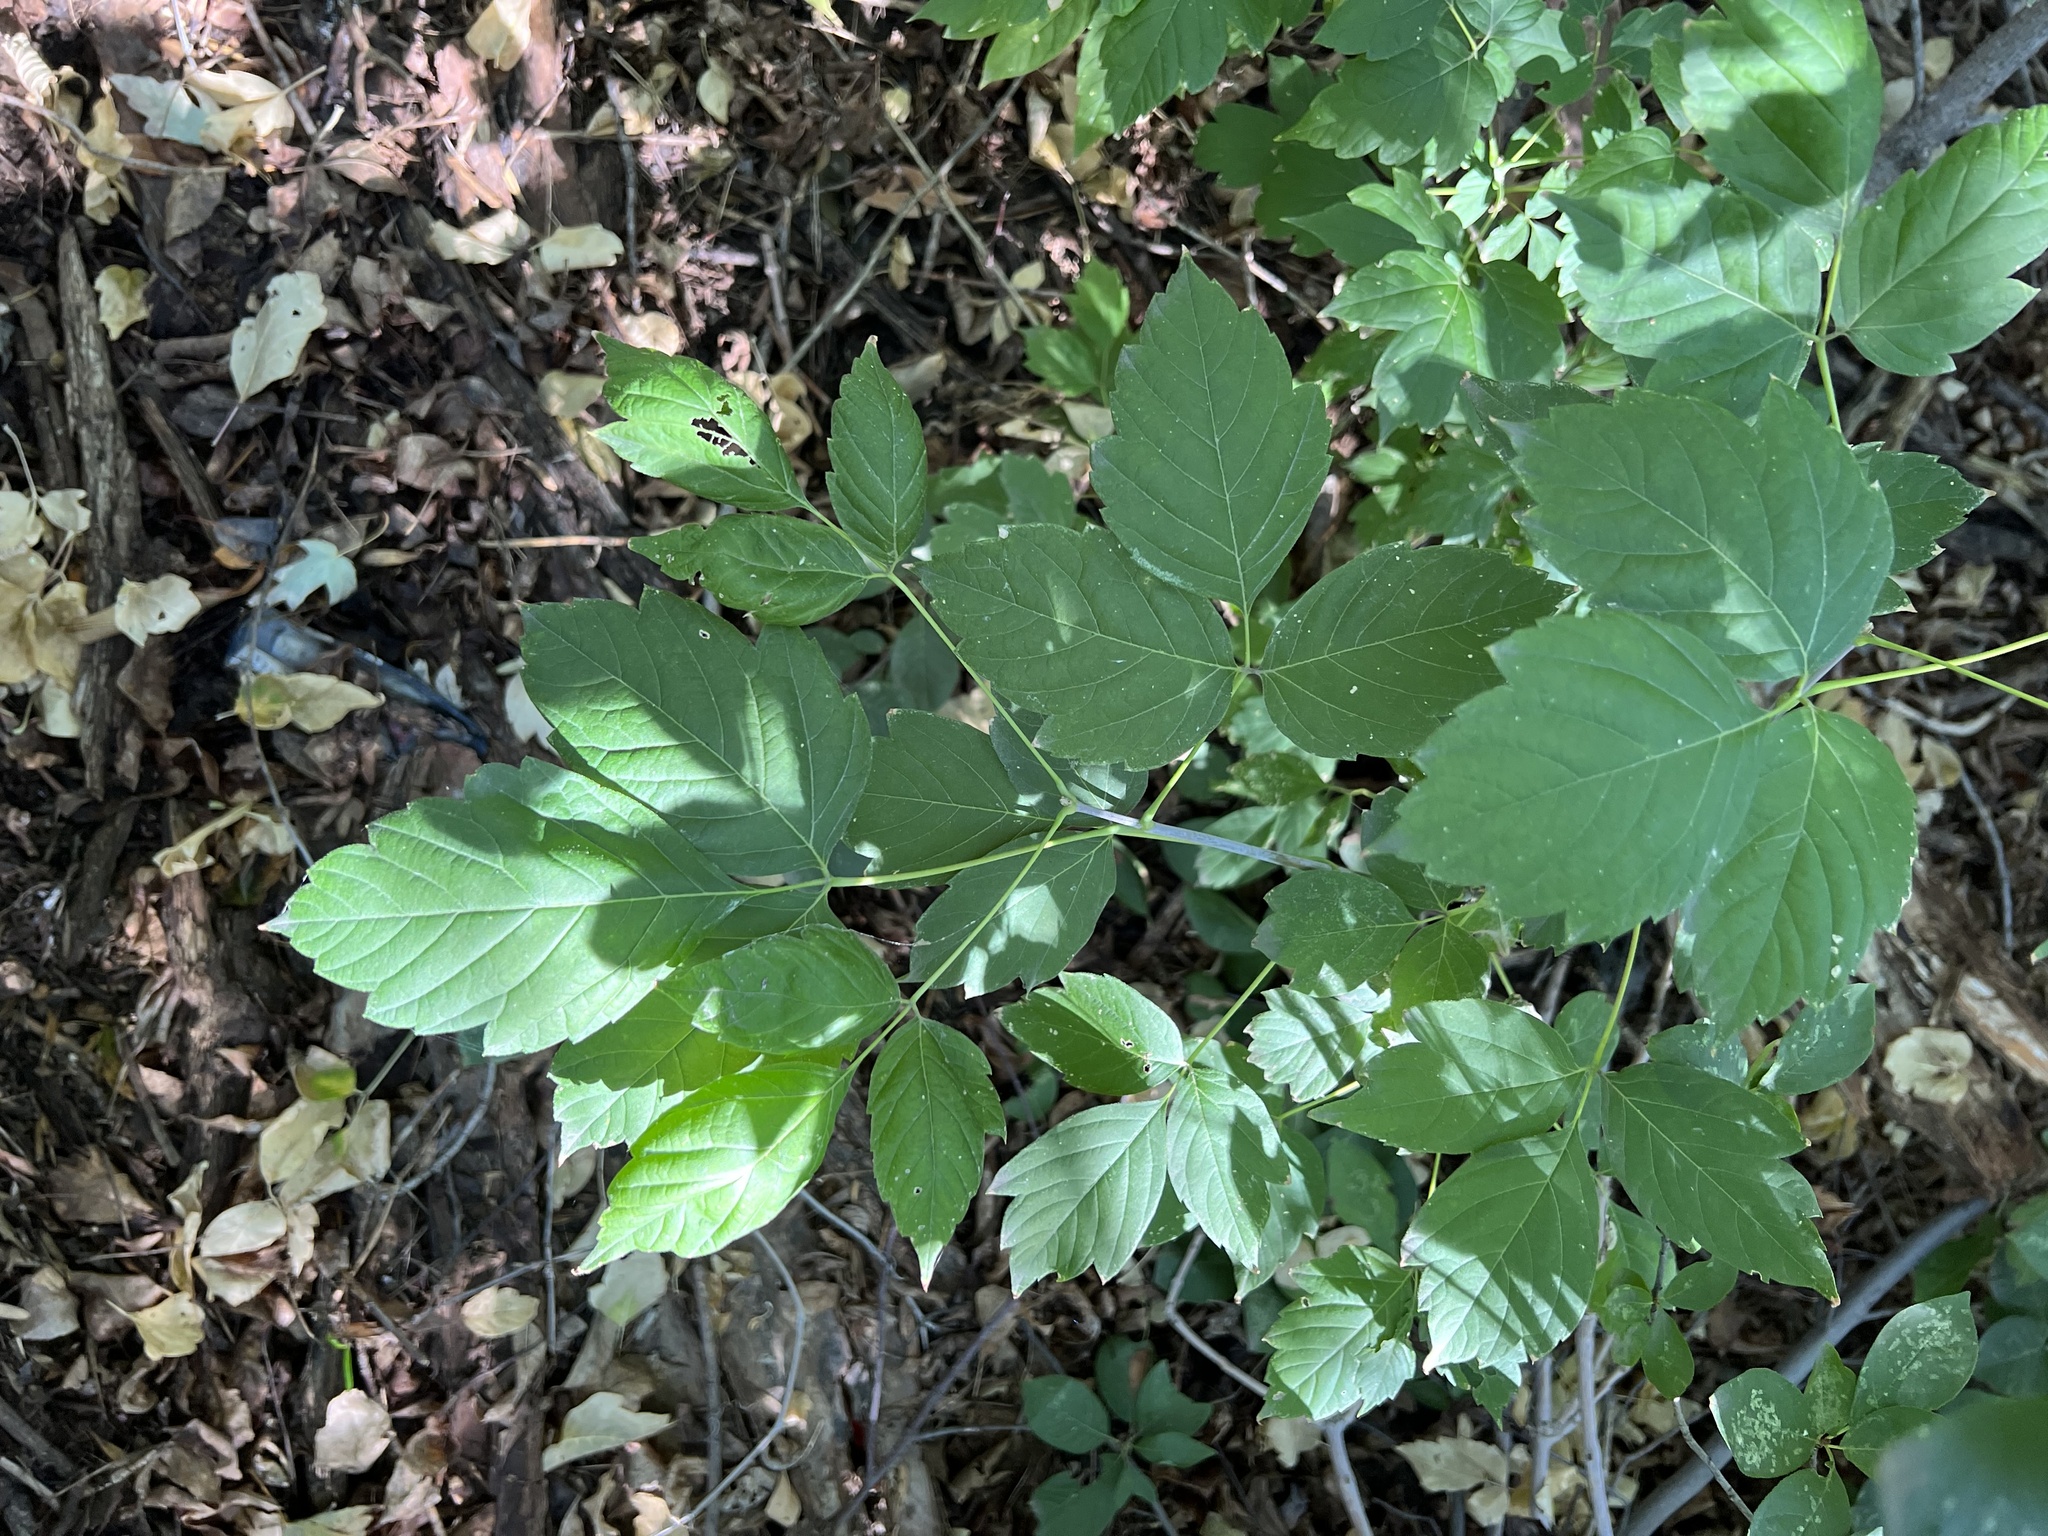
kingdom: Plantae
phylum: Tracheophyta
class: Magnoliopsida
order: Sapindales
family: Sapindaceae
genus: Acer
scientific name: Acer negundo
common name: Ashleaf maple
